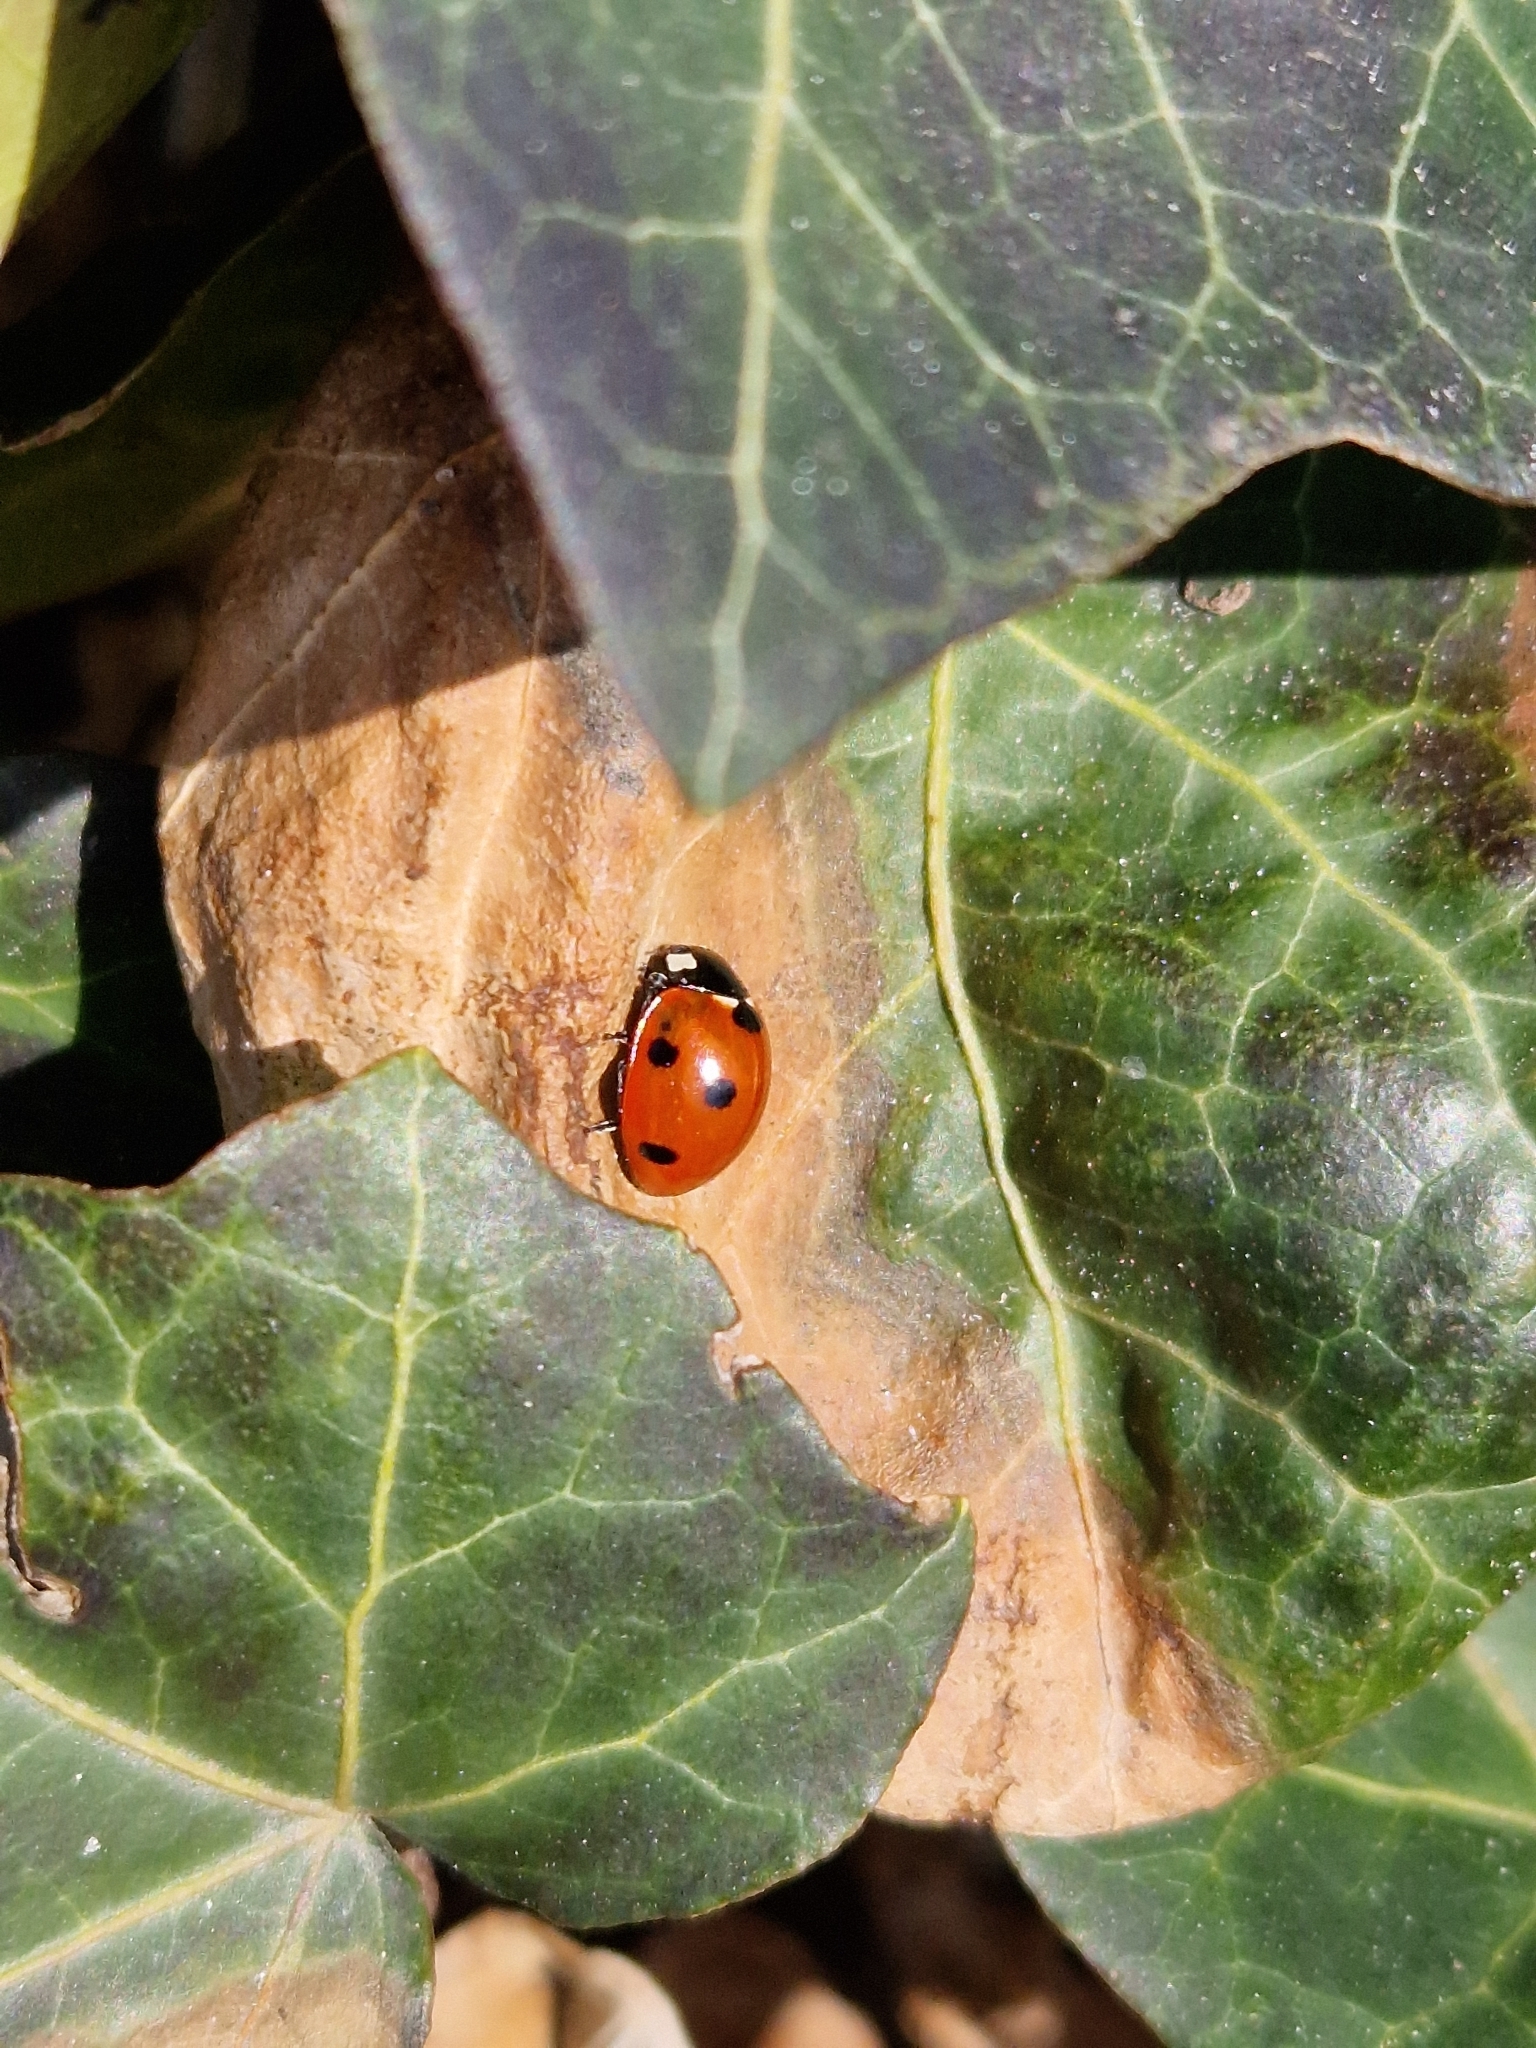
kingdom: Animalia
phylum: Arthropoda
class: Insecta
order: Coleoptera
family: Coccinellidae
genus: Coccinella
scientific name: Coccinella septempunctata
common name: Sevenspotted lady beetle
